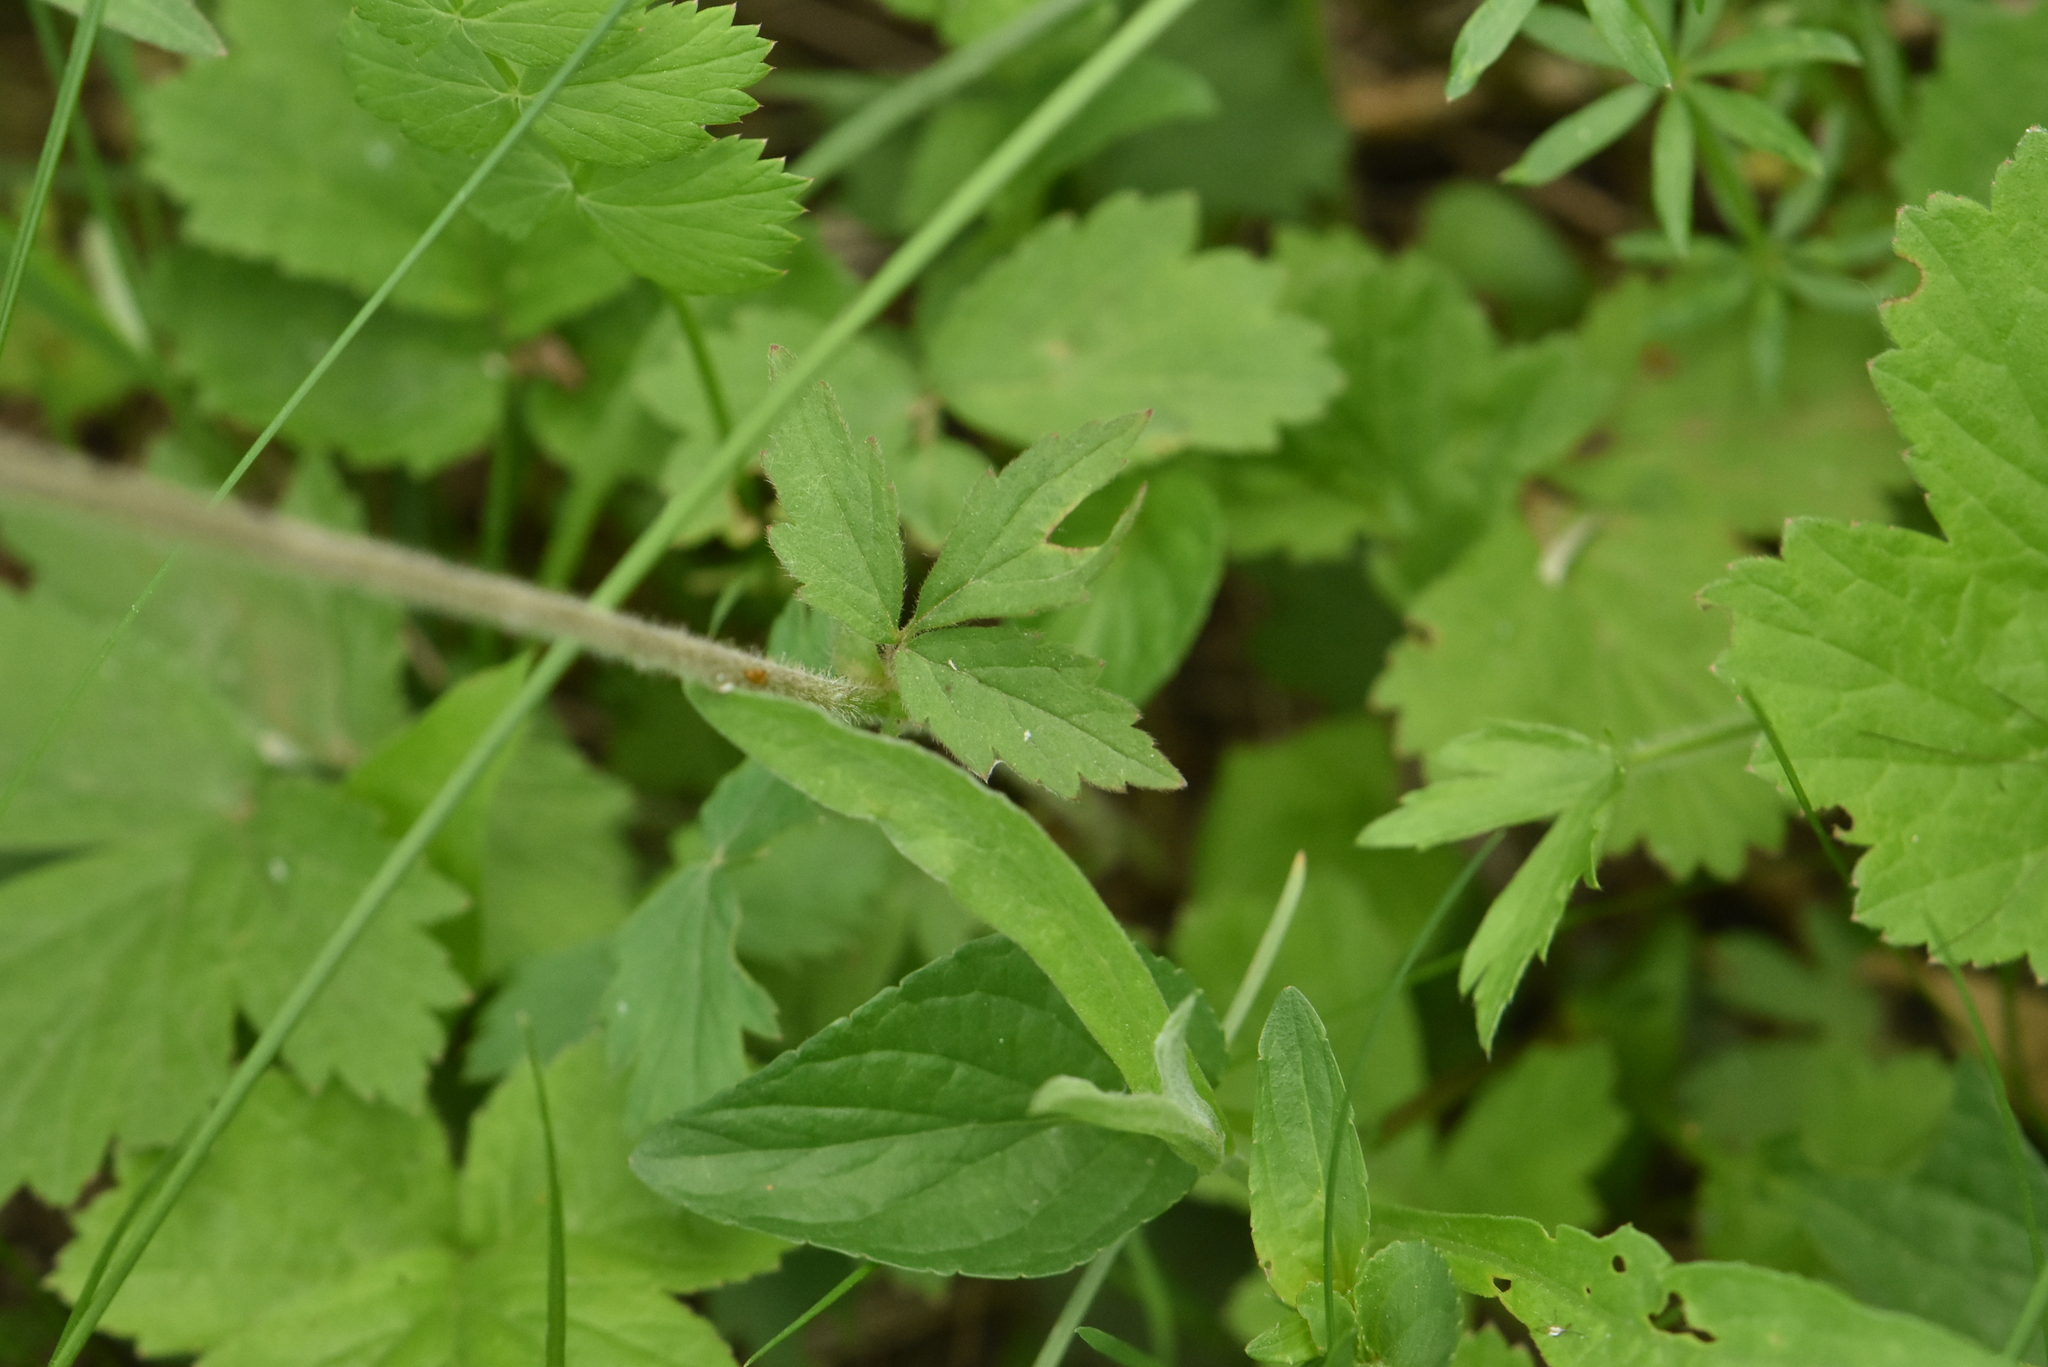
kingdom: Plantae
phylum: Tracheophyta
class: Magnoliopsida
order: Rosales
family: Rosaceae
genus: Geum
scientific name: Geum rivale
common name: Water avens
